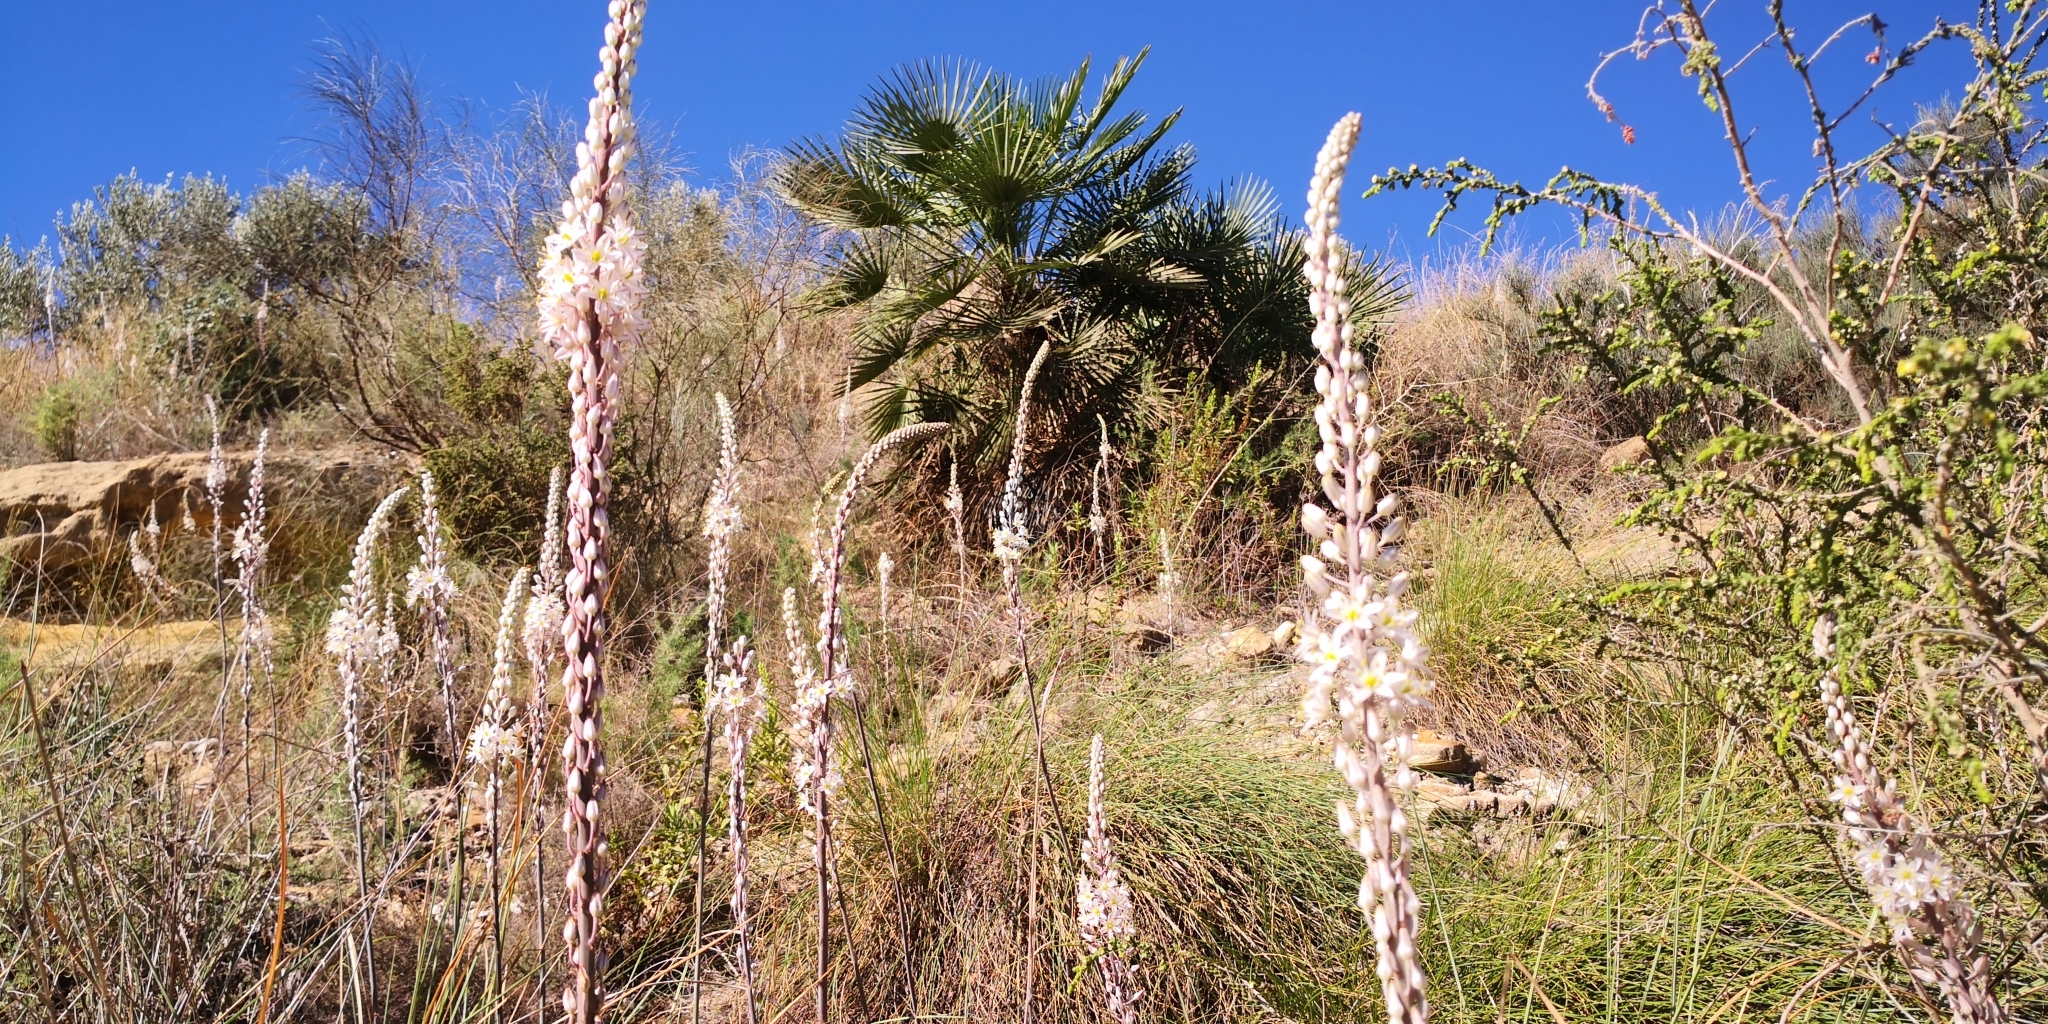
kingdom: Plantae
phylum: Tracheophyta
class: Liliopsida
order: Asparagales
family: Asparagaceae
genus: Drimia
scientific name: Drimia maritima
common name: Maritime squill
